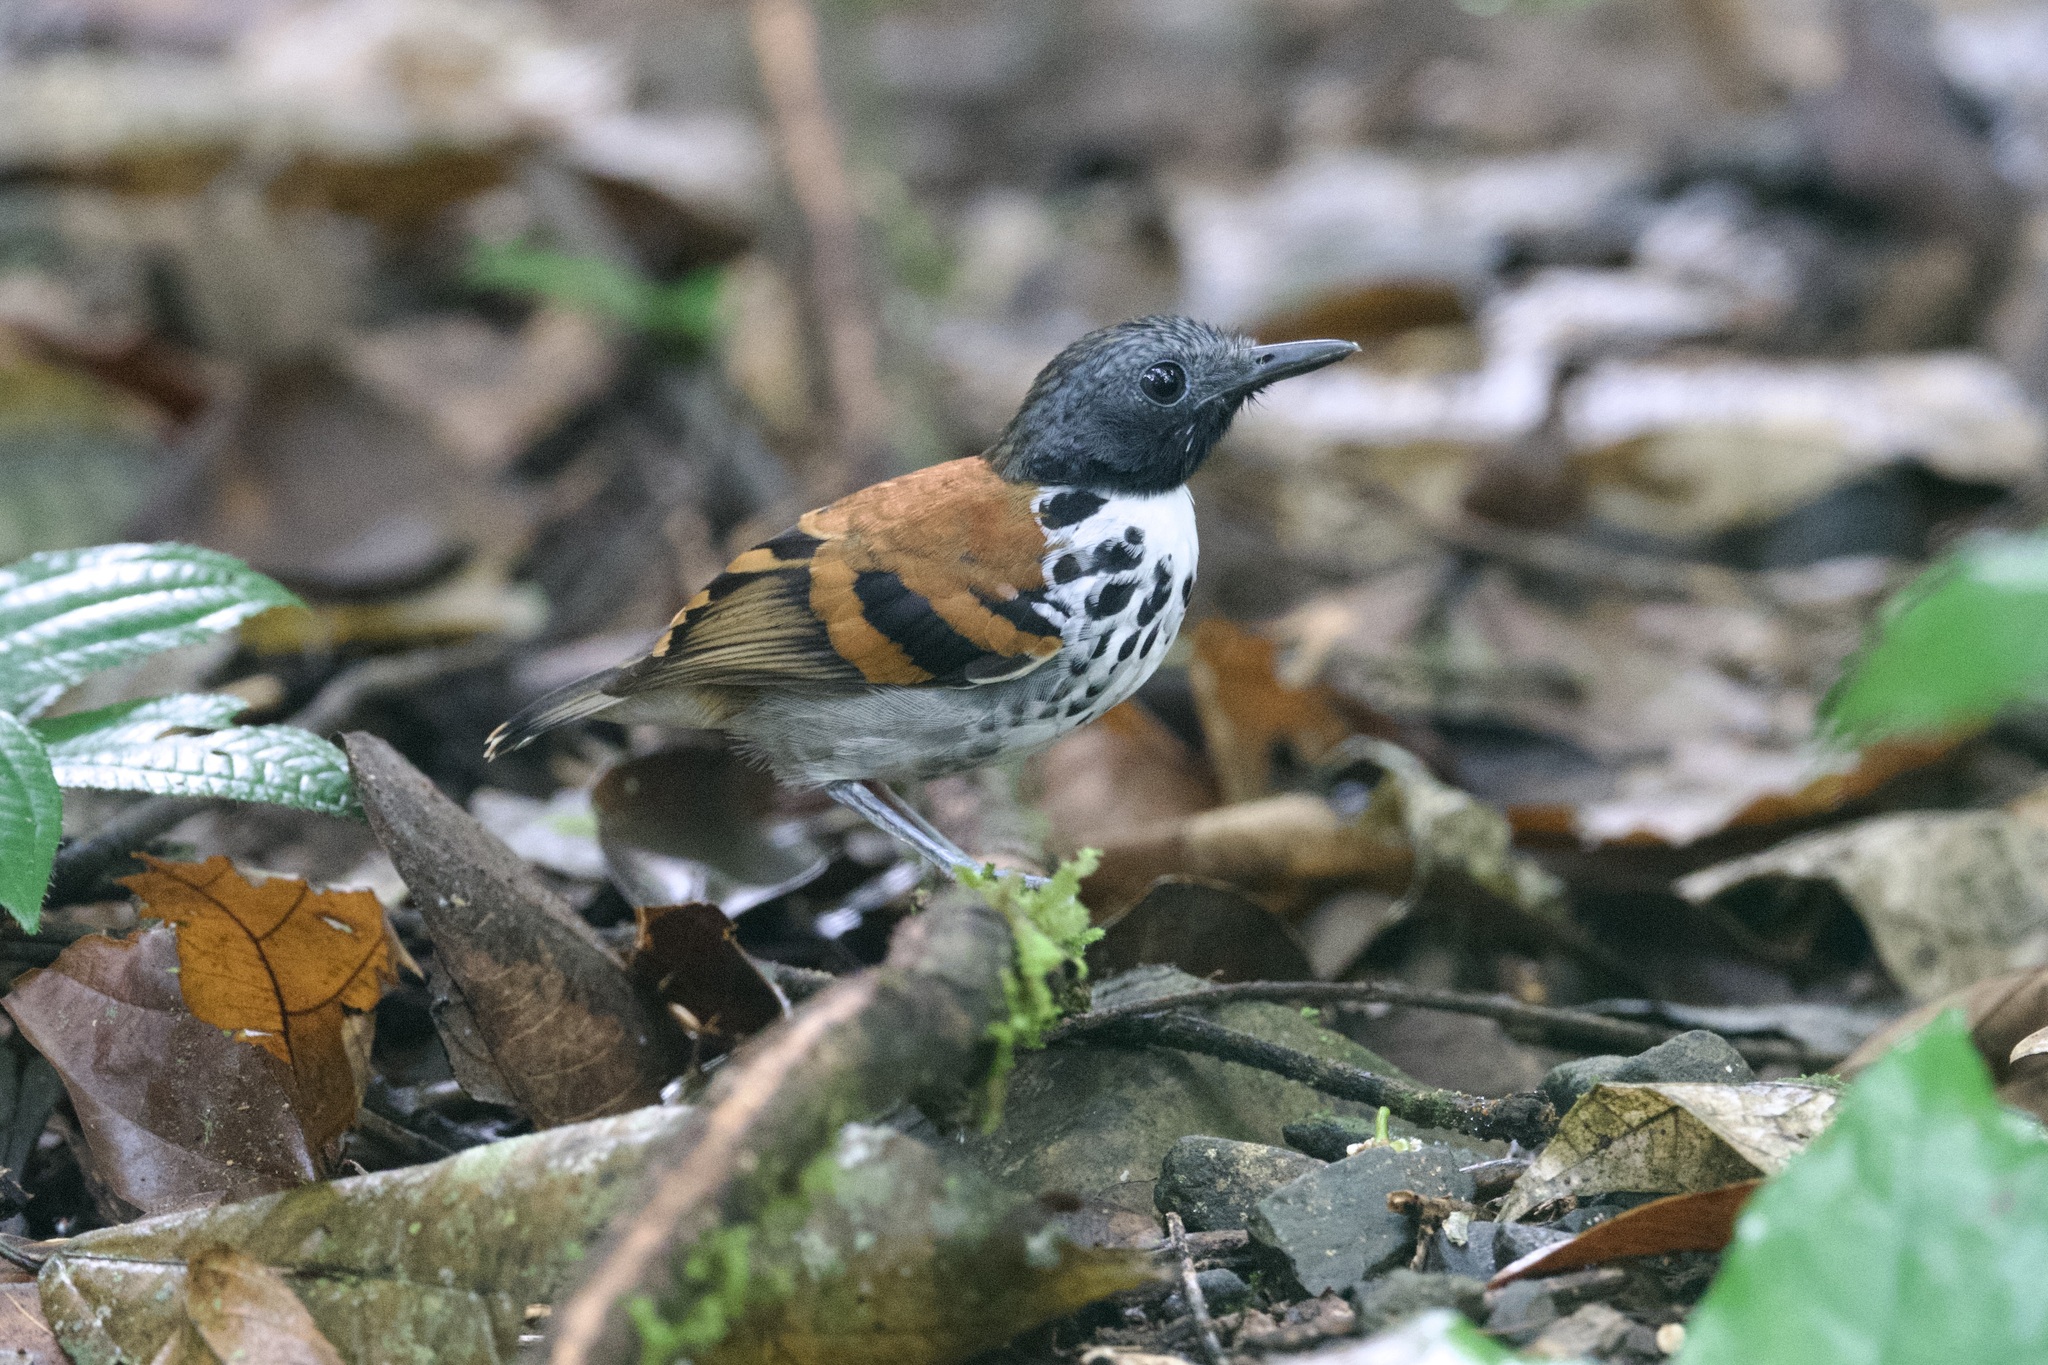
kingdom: Animalia
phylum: Chordata
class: Aves
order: Passeriformes
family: Thamnophilidae
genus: Hylophylax
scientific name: Hylophylax naevioides
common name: Spotted antbird
